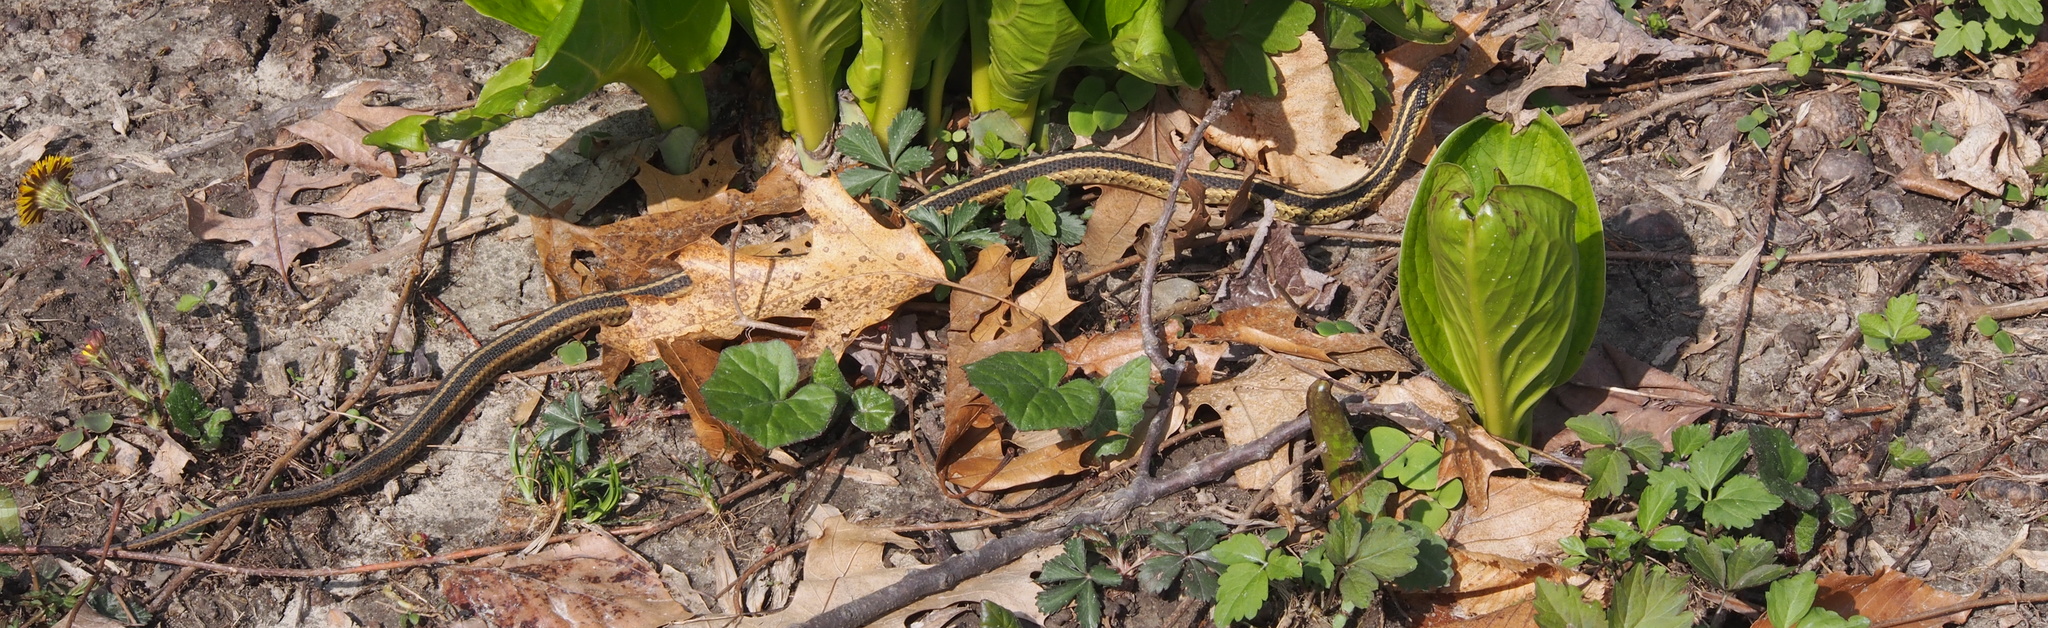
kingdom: Animalia
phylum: Chordata
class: Squamata
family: Colubridae
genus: Thamnophis
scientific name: Thamnophis sirtalis
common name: Common garter snake
